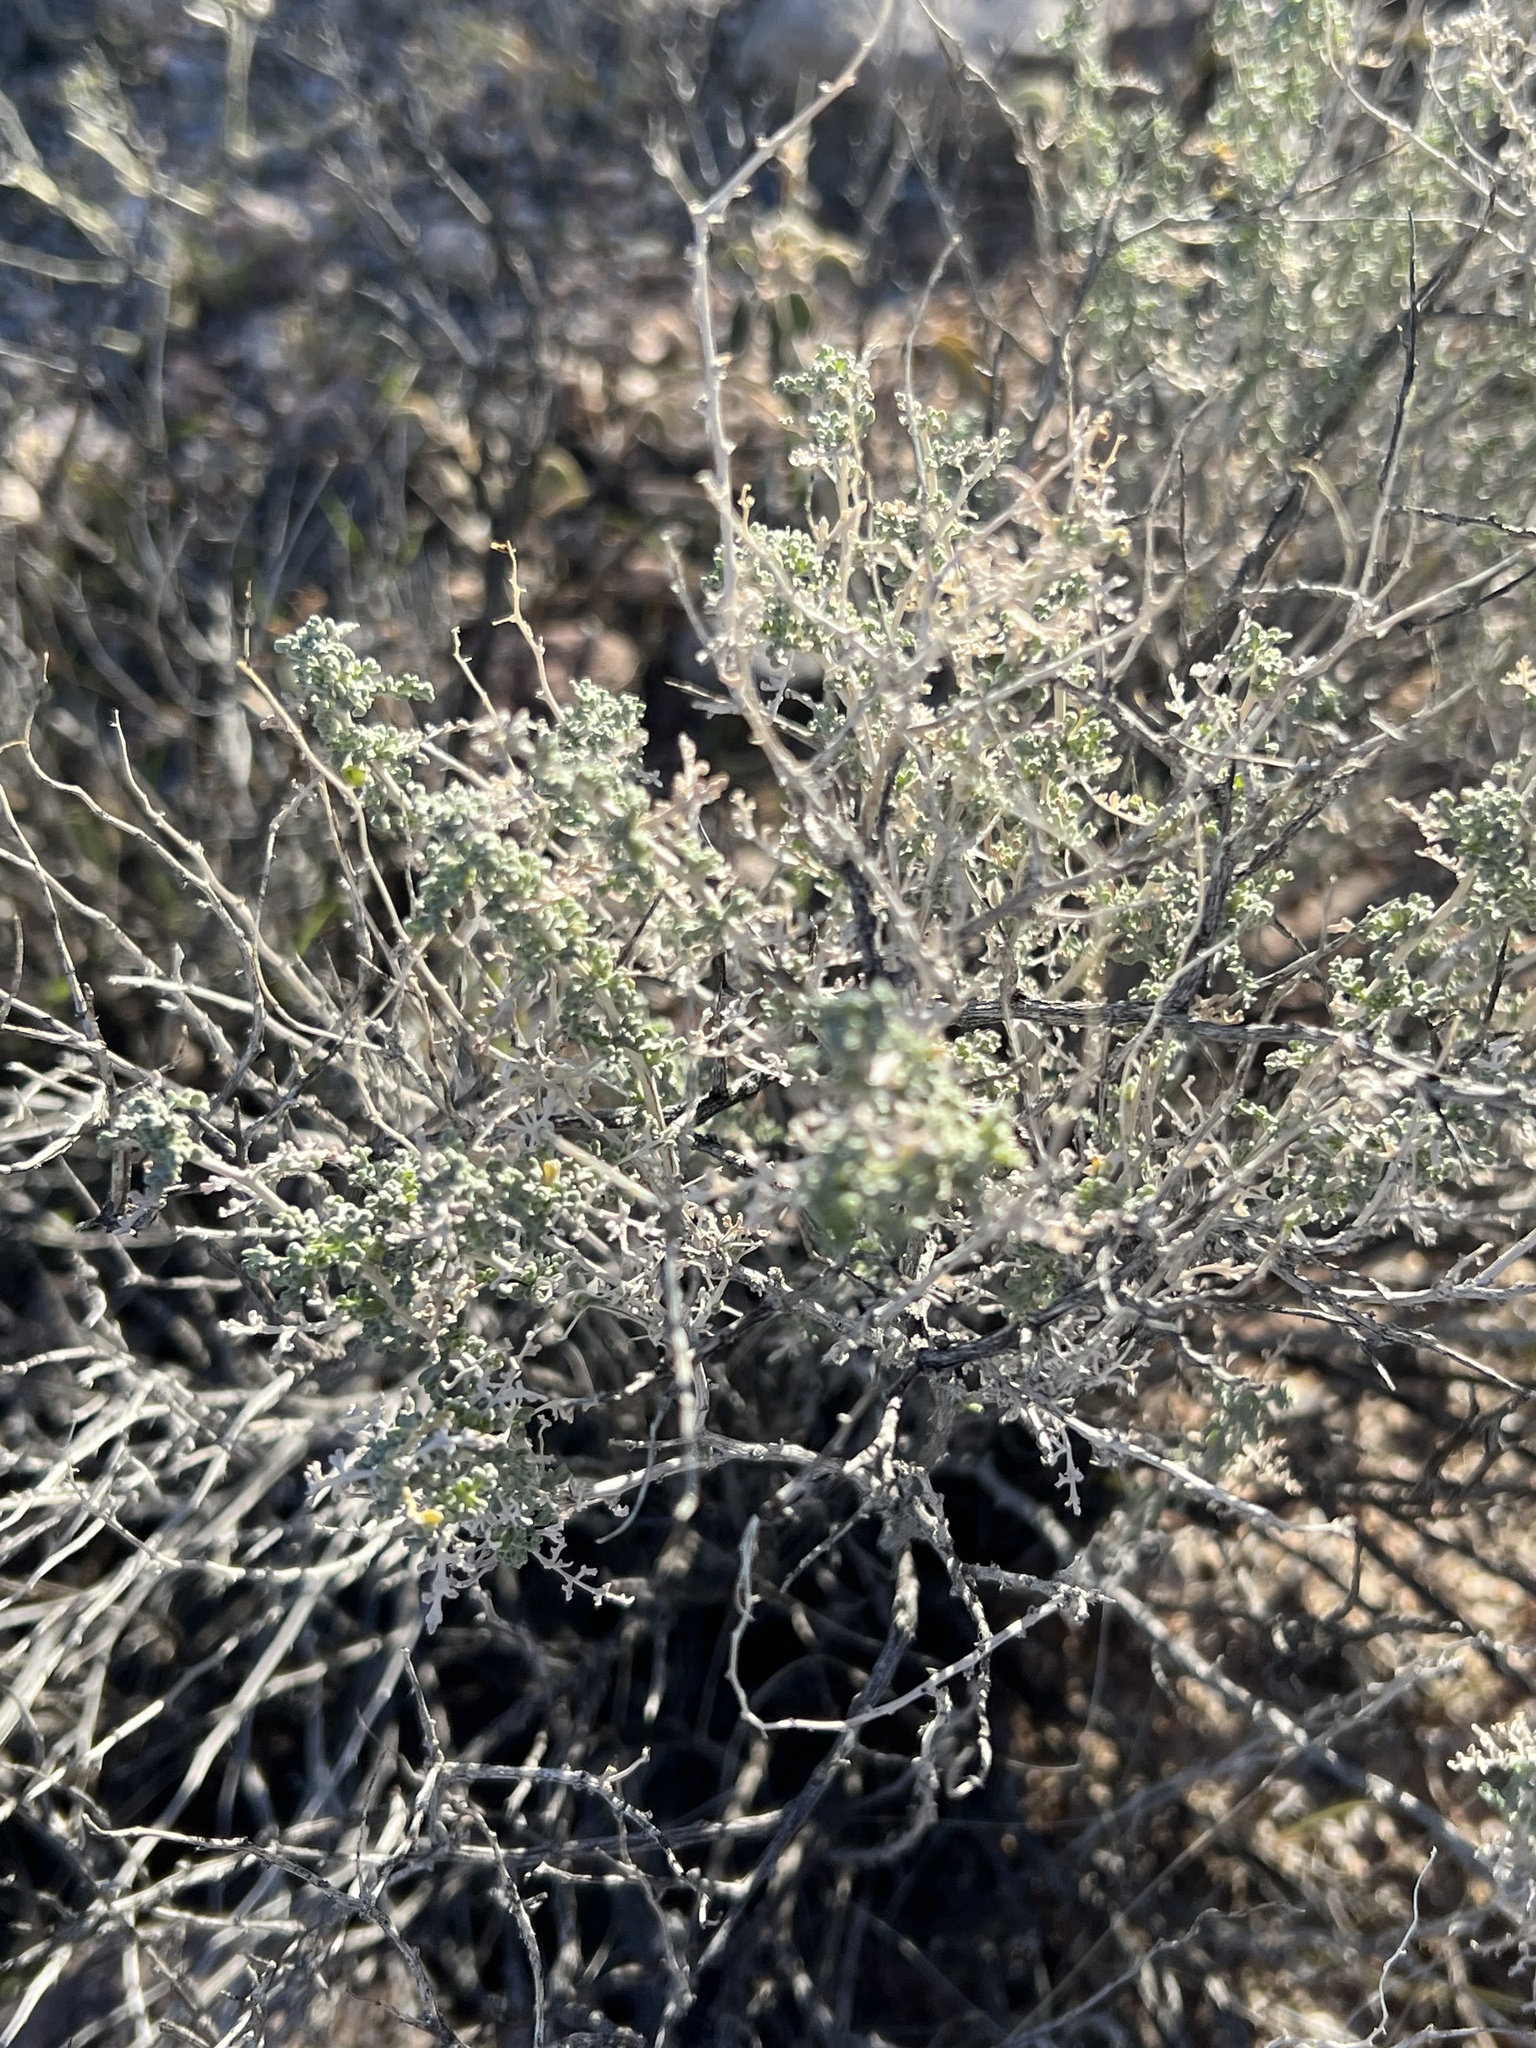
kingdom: Plantae
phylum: Tracheophyta
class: Magnoliopsida
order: Asterales
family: Asteraceae
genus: Ambrosia
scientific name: Ambrosia dumosa
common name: Bur-sage
